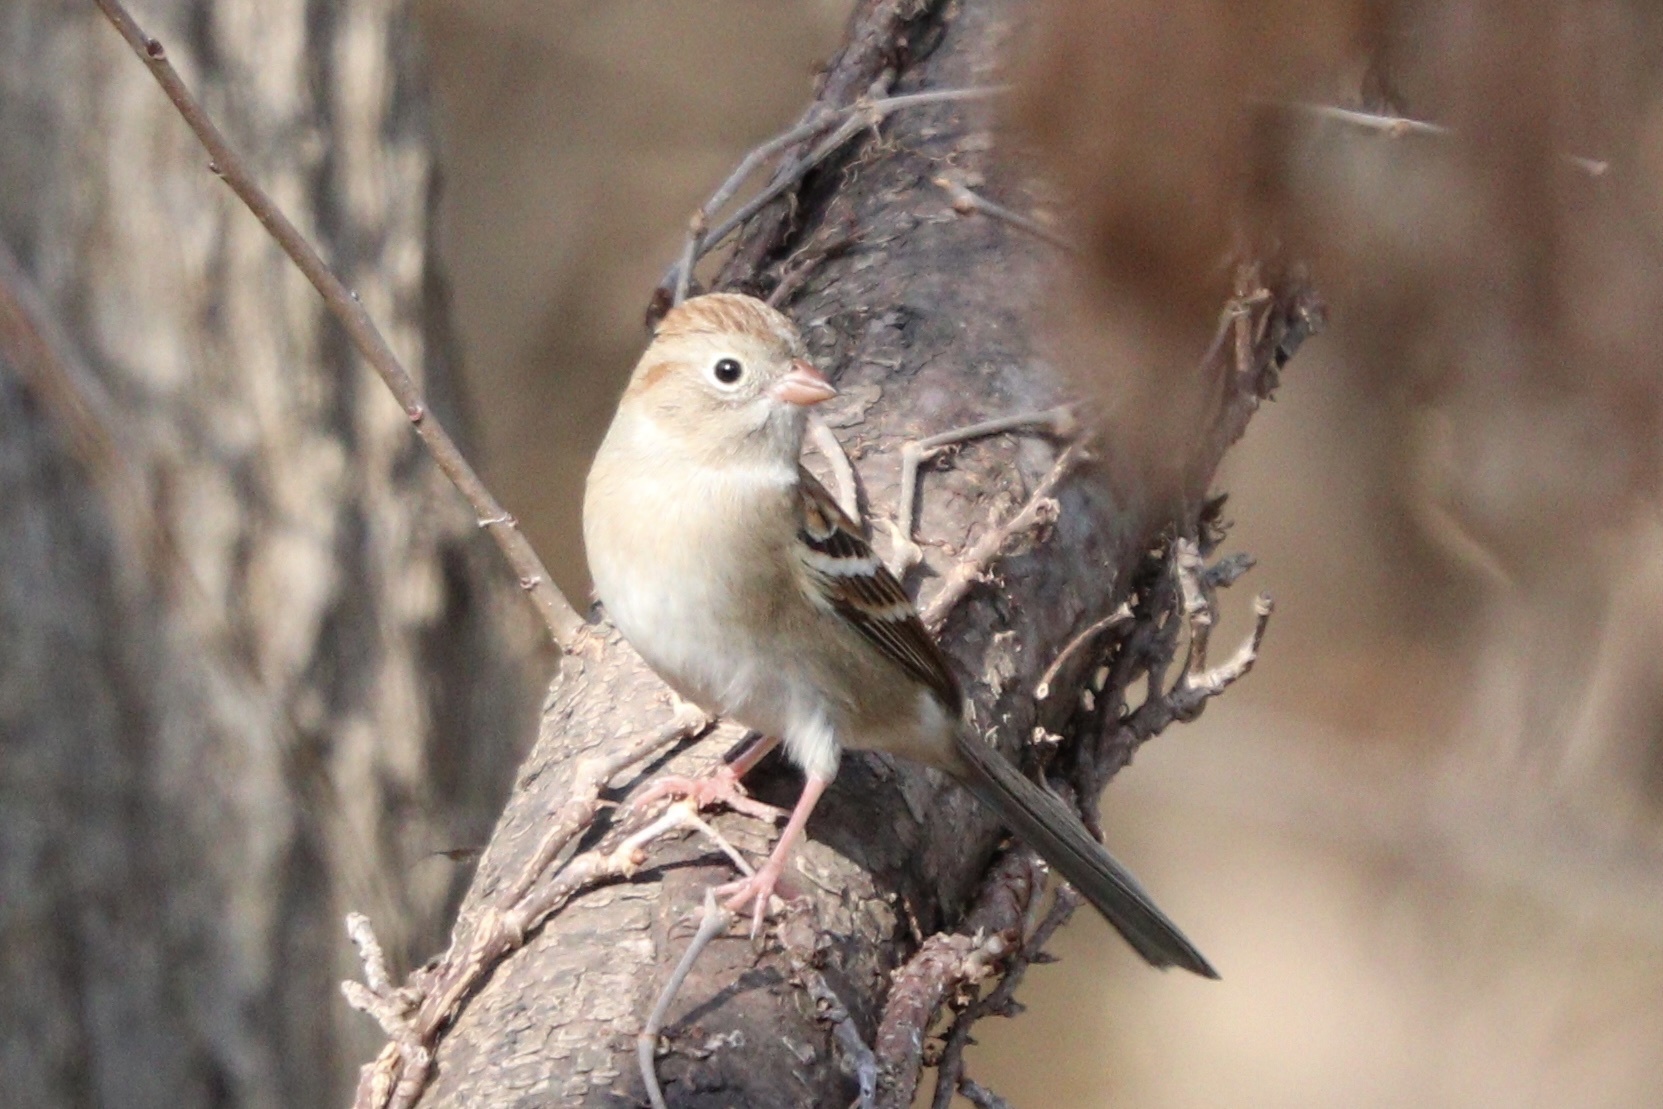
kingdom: Animalia
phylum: Chordata
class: Aves
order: Passeriformes
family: Passerellidae
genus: Spizella
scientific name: Spizella pusilla
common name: Field sparrow
